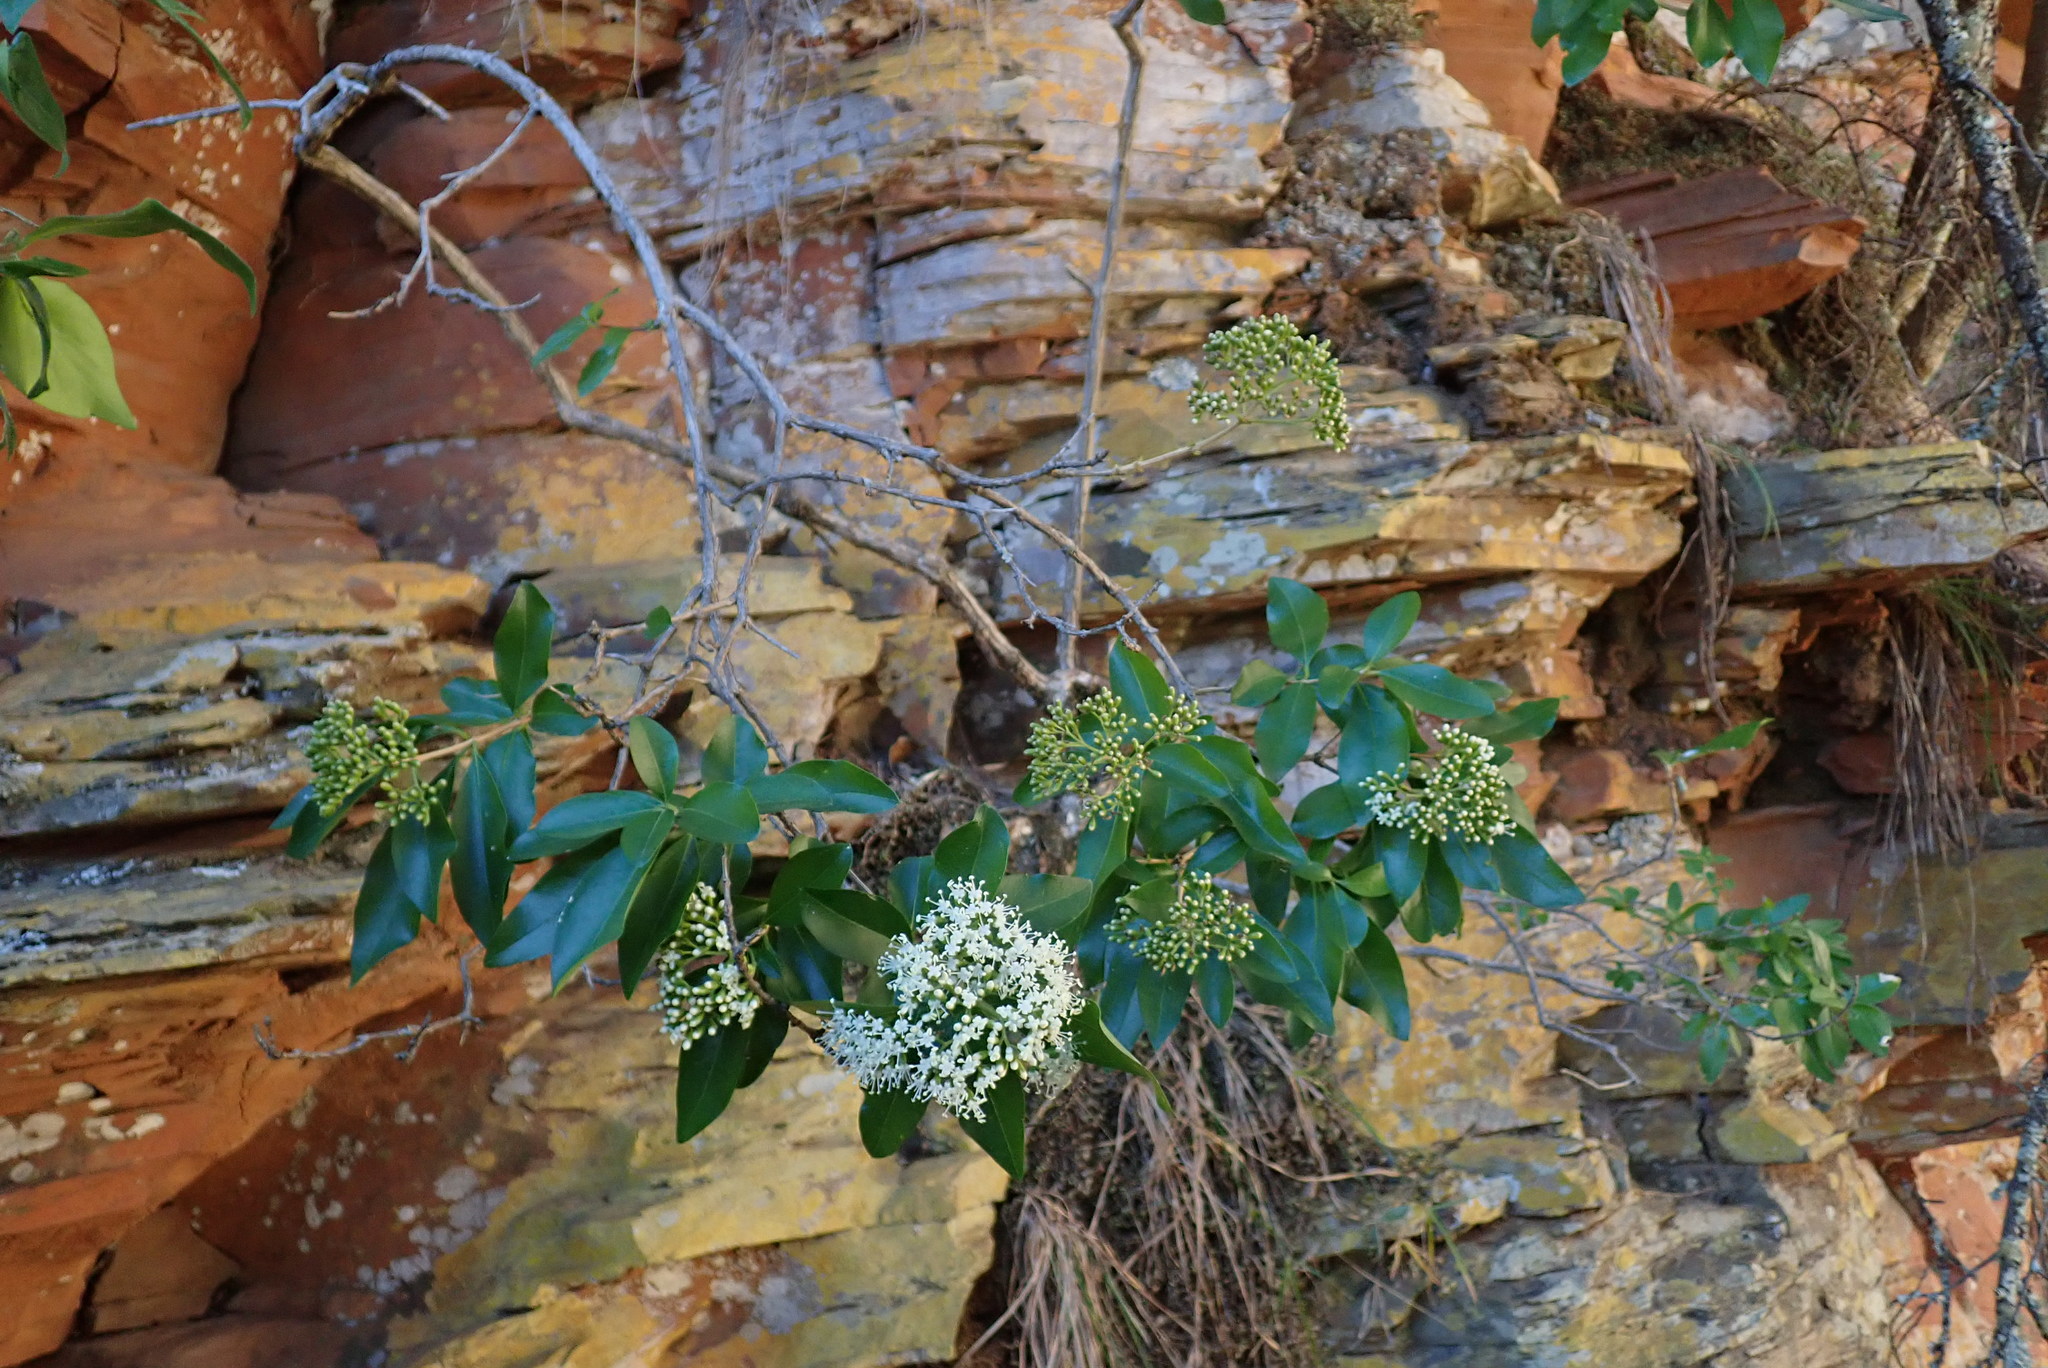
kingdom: Plantae
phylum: Tracheophyta
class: Magnoliopsida
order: Lamiales
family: Stilbaceae
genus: Nuxia
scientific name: Nuxia congesta
